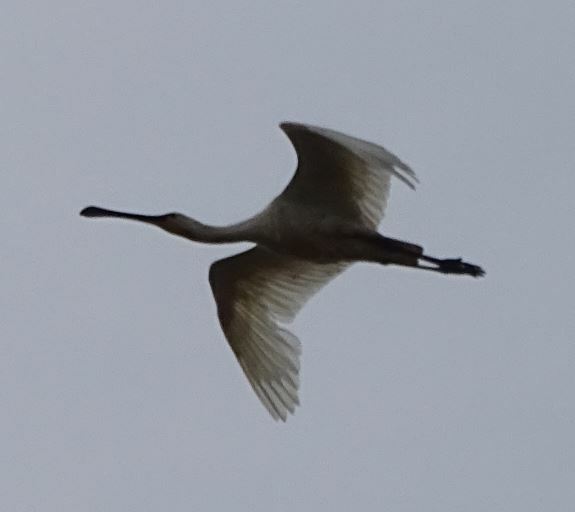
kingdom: Animalia
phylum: Chordata
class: Aves
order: Pelecaniformes
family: Threskiornithidae
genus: Platalea
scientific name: Platalea leucorodia
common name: Eurasian spoonbill
